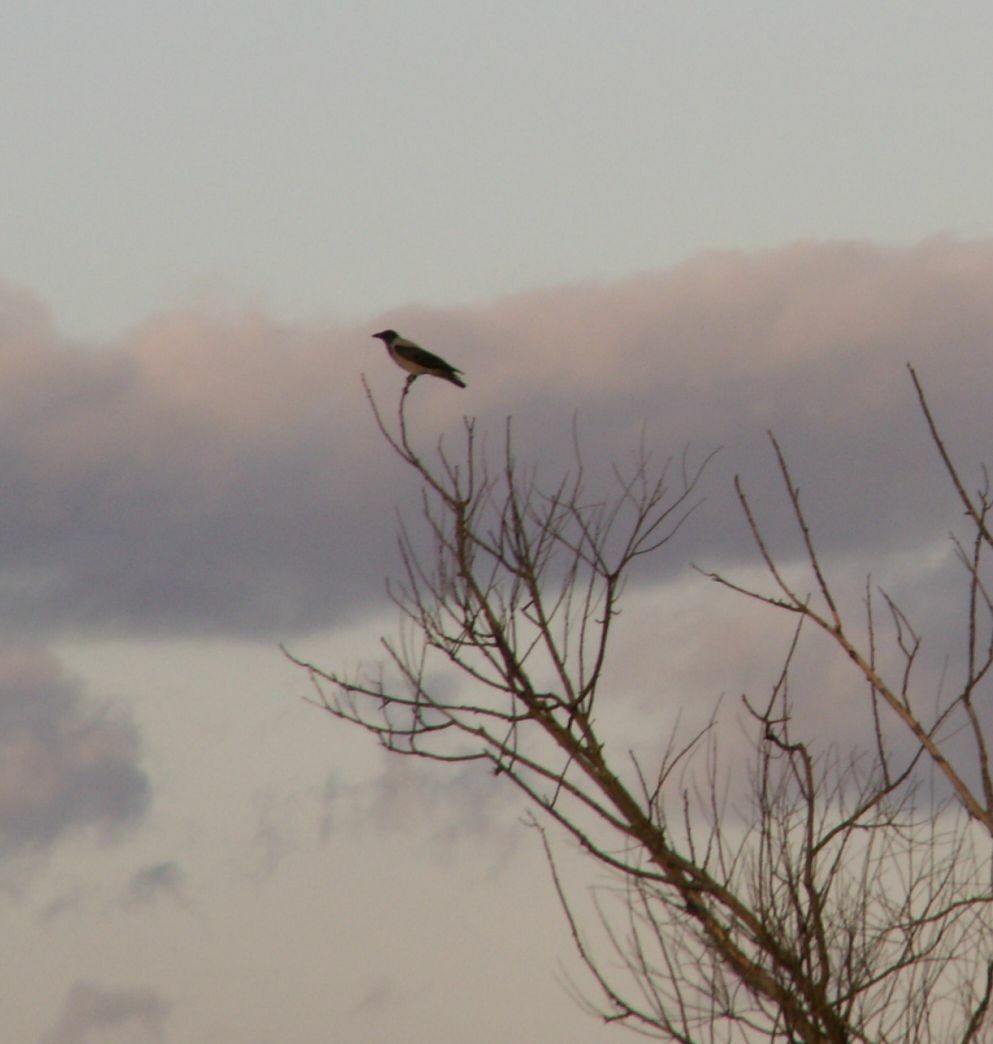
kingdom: Animalia
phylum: Chordata
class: Aves
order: Passeriformes
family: Corvidae
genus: Corvus
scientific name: Corvus cornix
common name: Hooded crow
